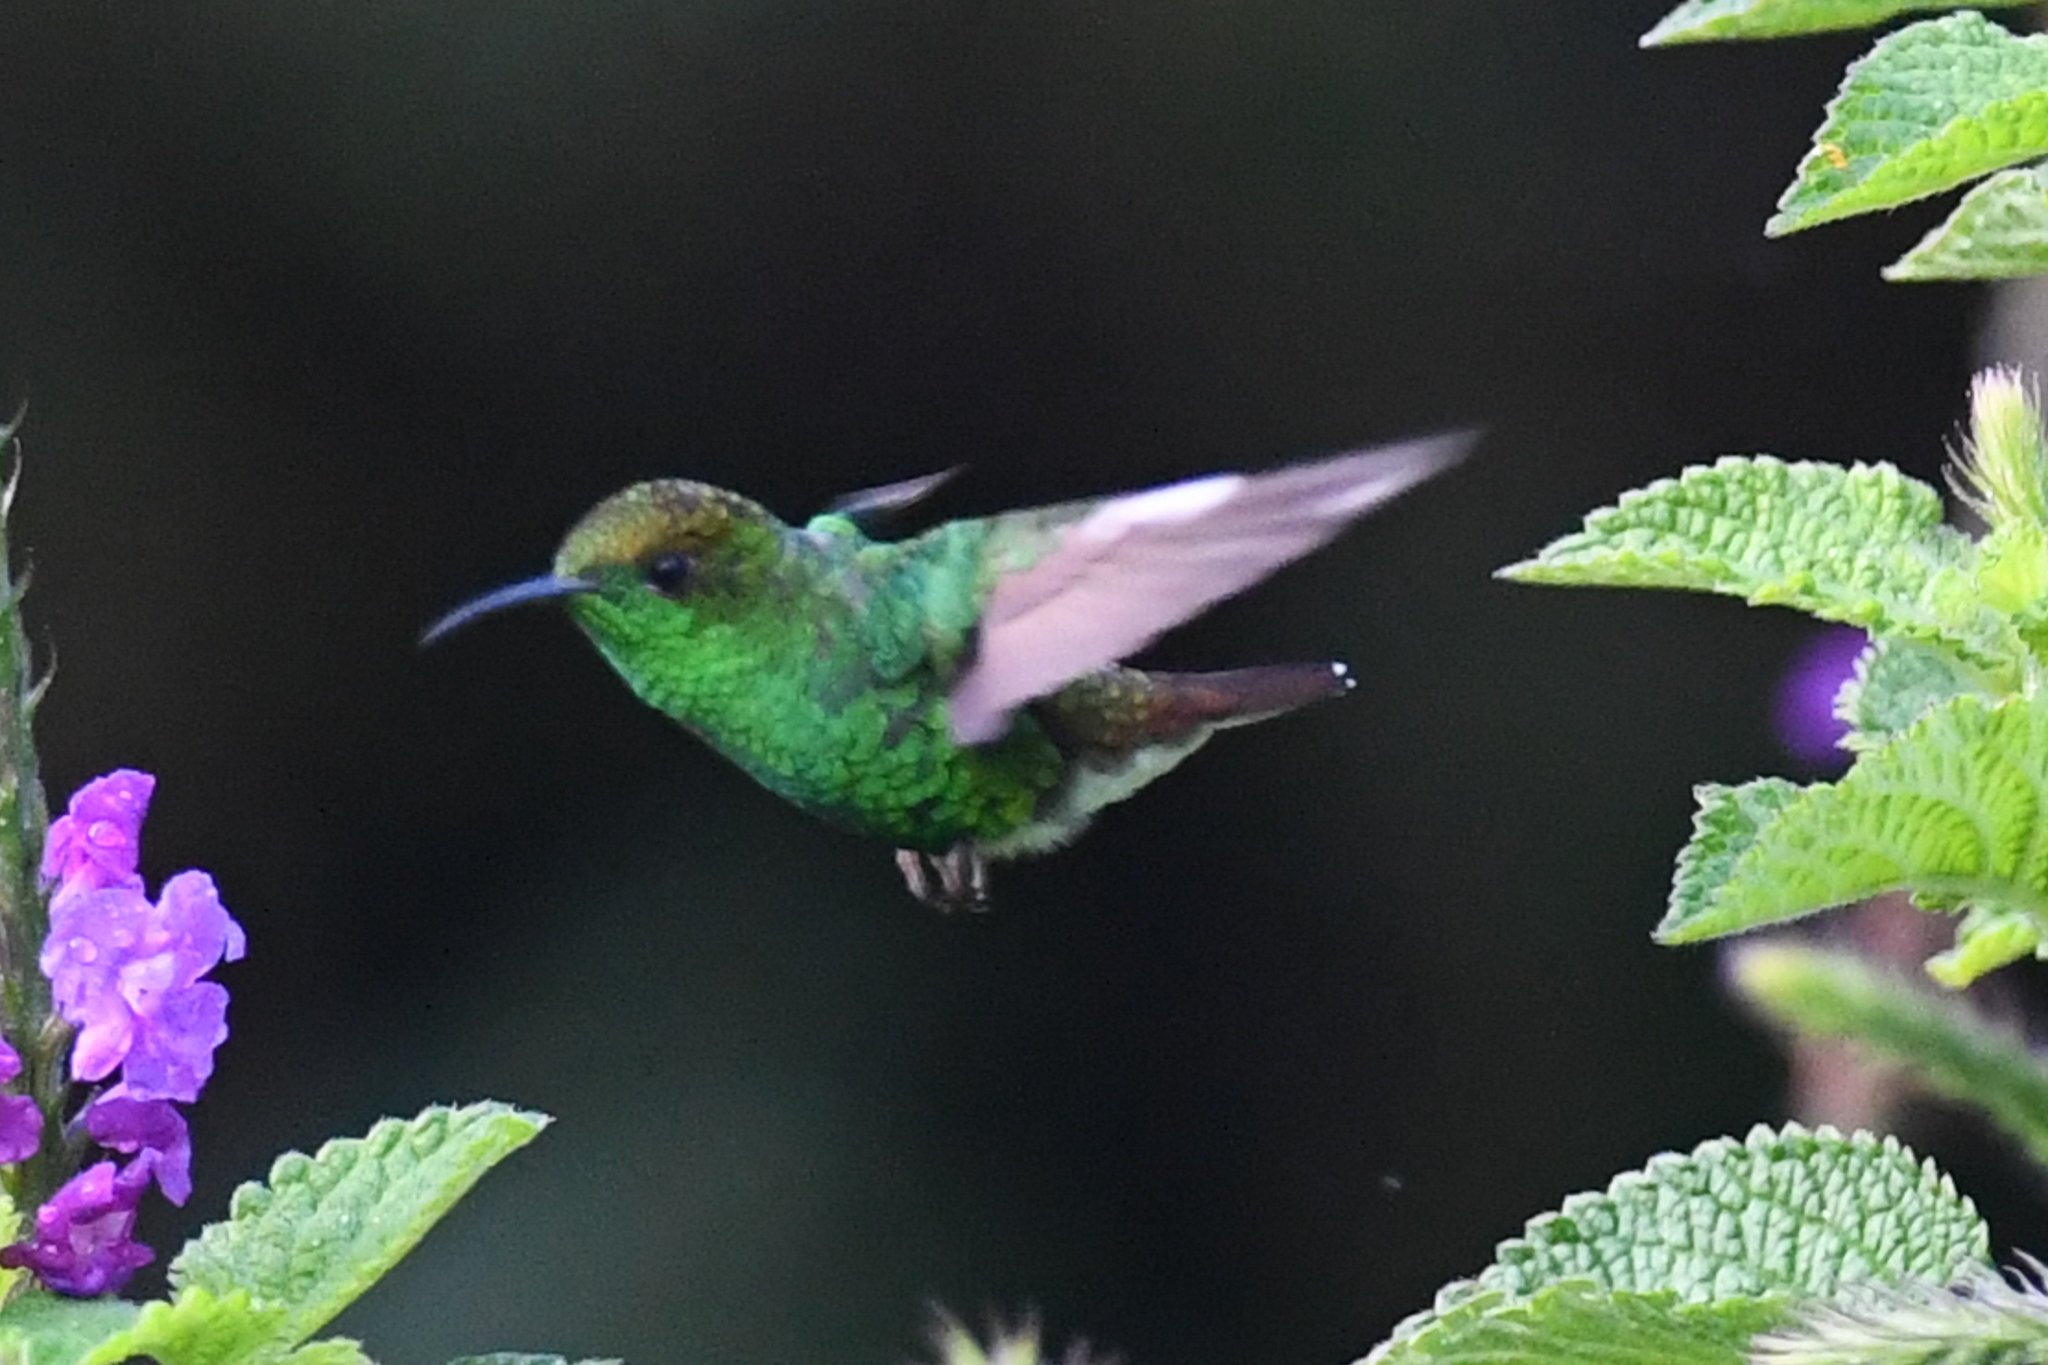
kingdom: Animalia
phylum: Chordata
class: Aves
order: Apodiformes
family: Trochilidae
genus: Microchera
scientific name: Microchera cupreiceps
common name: Coppery-headed emerald
